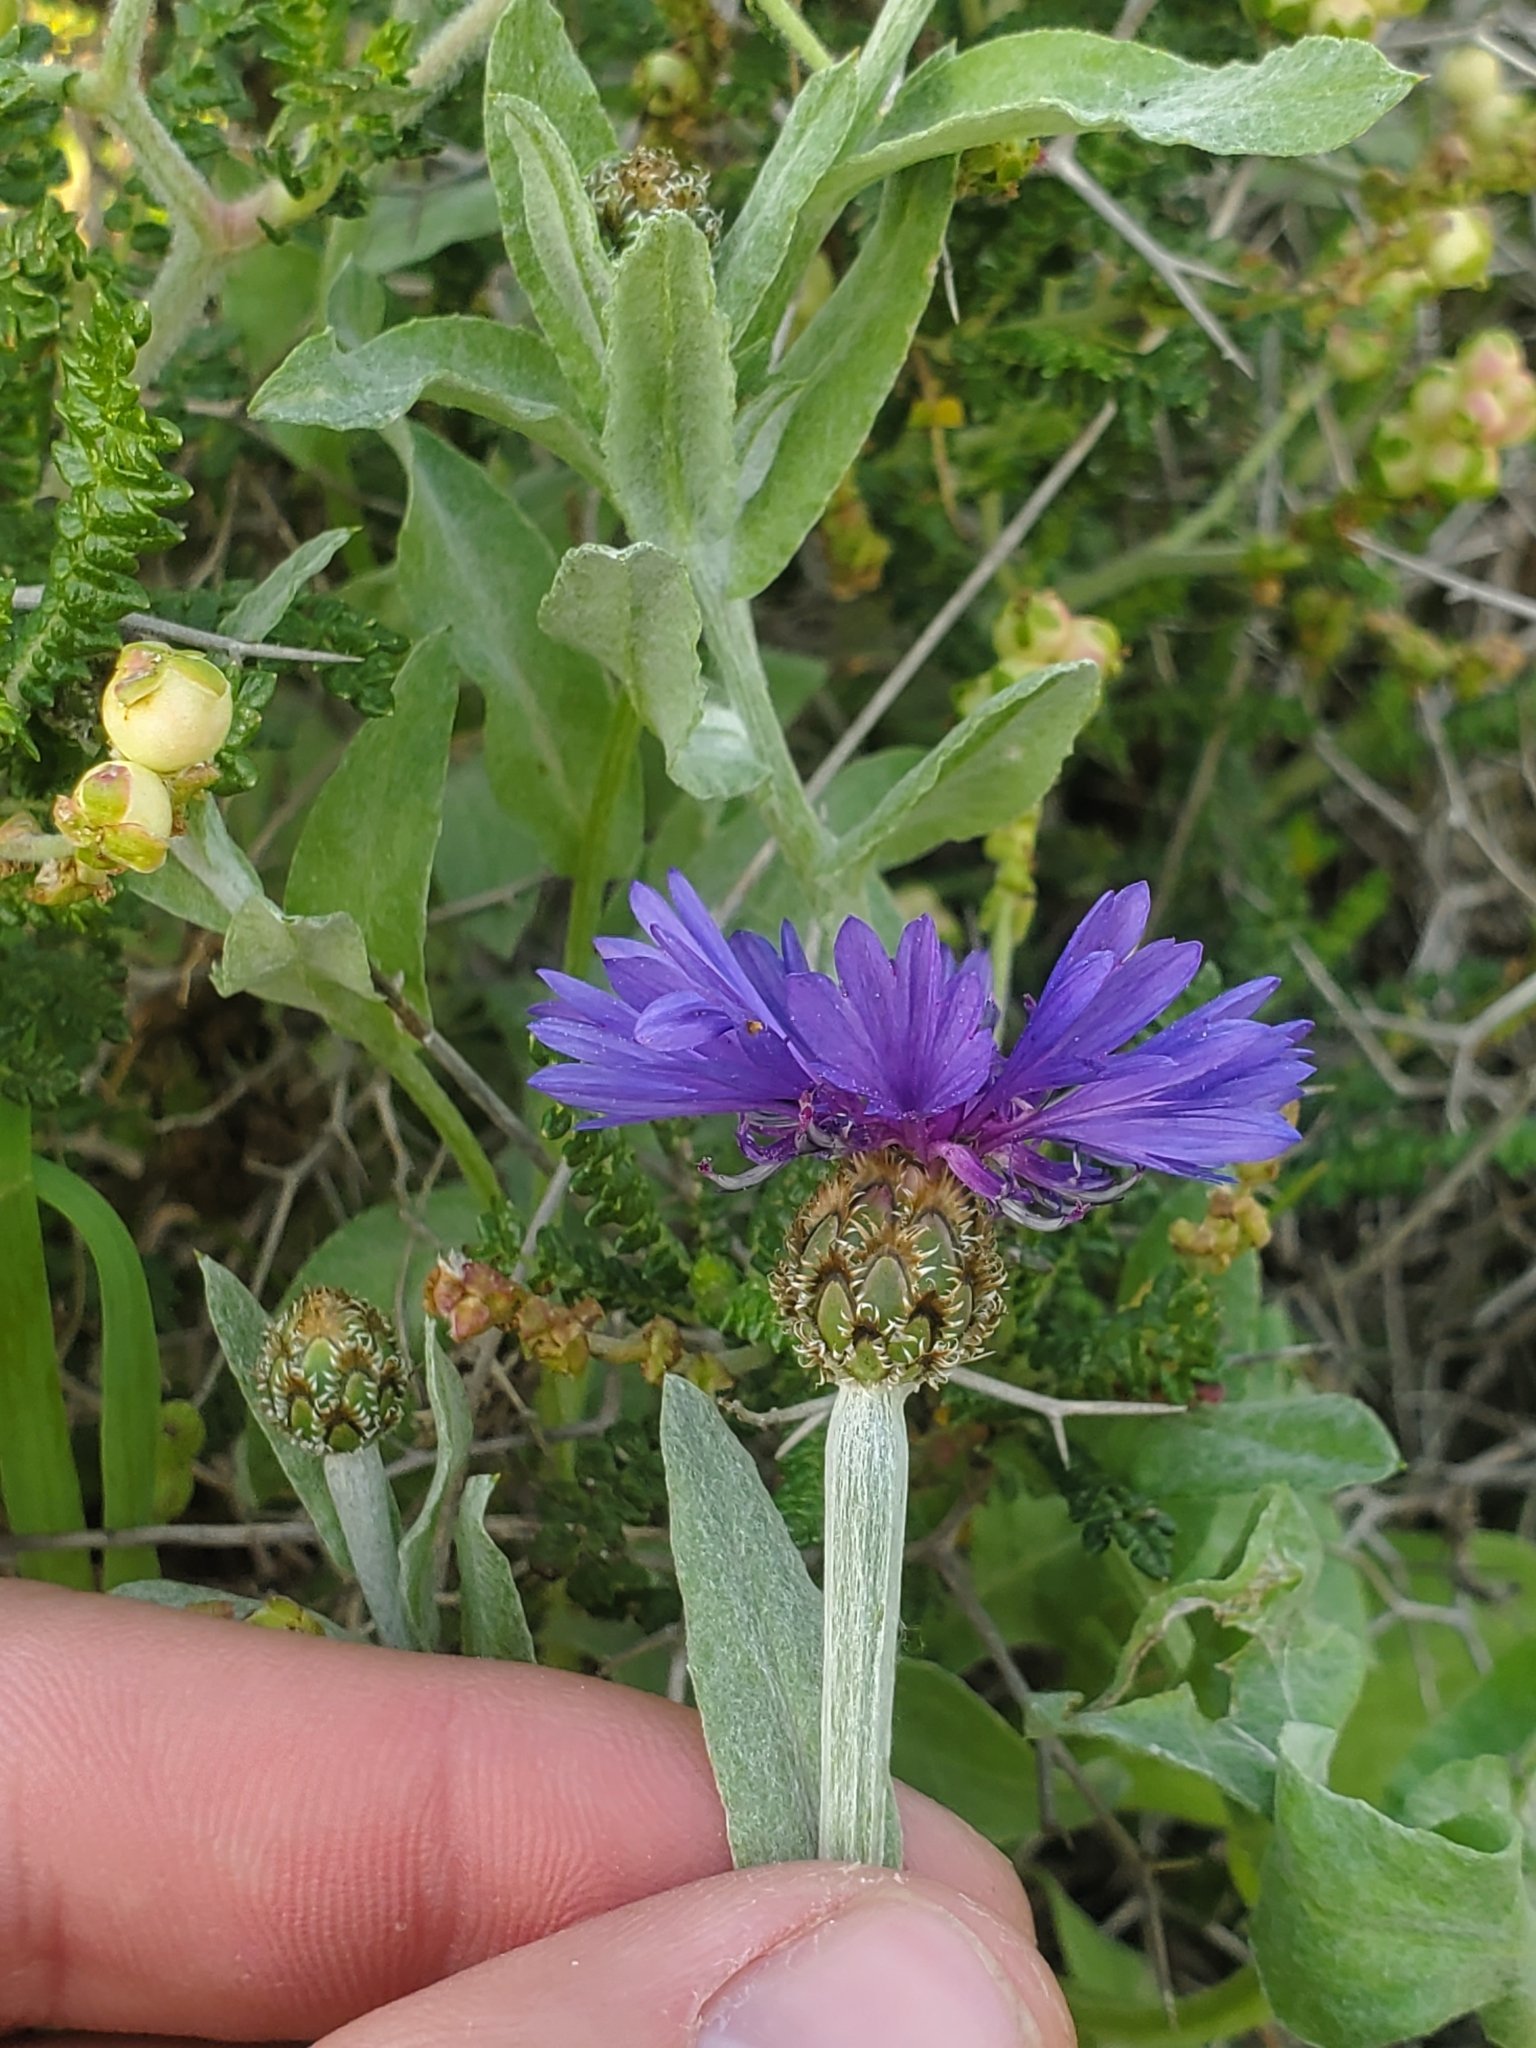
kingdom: Plantae
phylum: Tracheophyta
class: Magnoliopsida
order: Asterales
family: Asteraceae
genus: Centaurea
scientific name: Centaurea cyanus
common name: Cornflower
